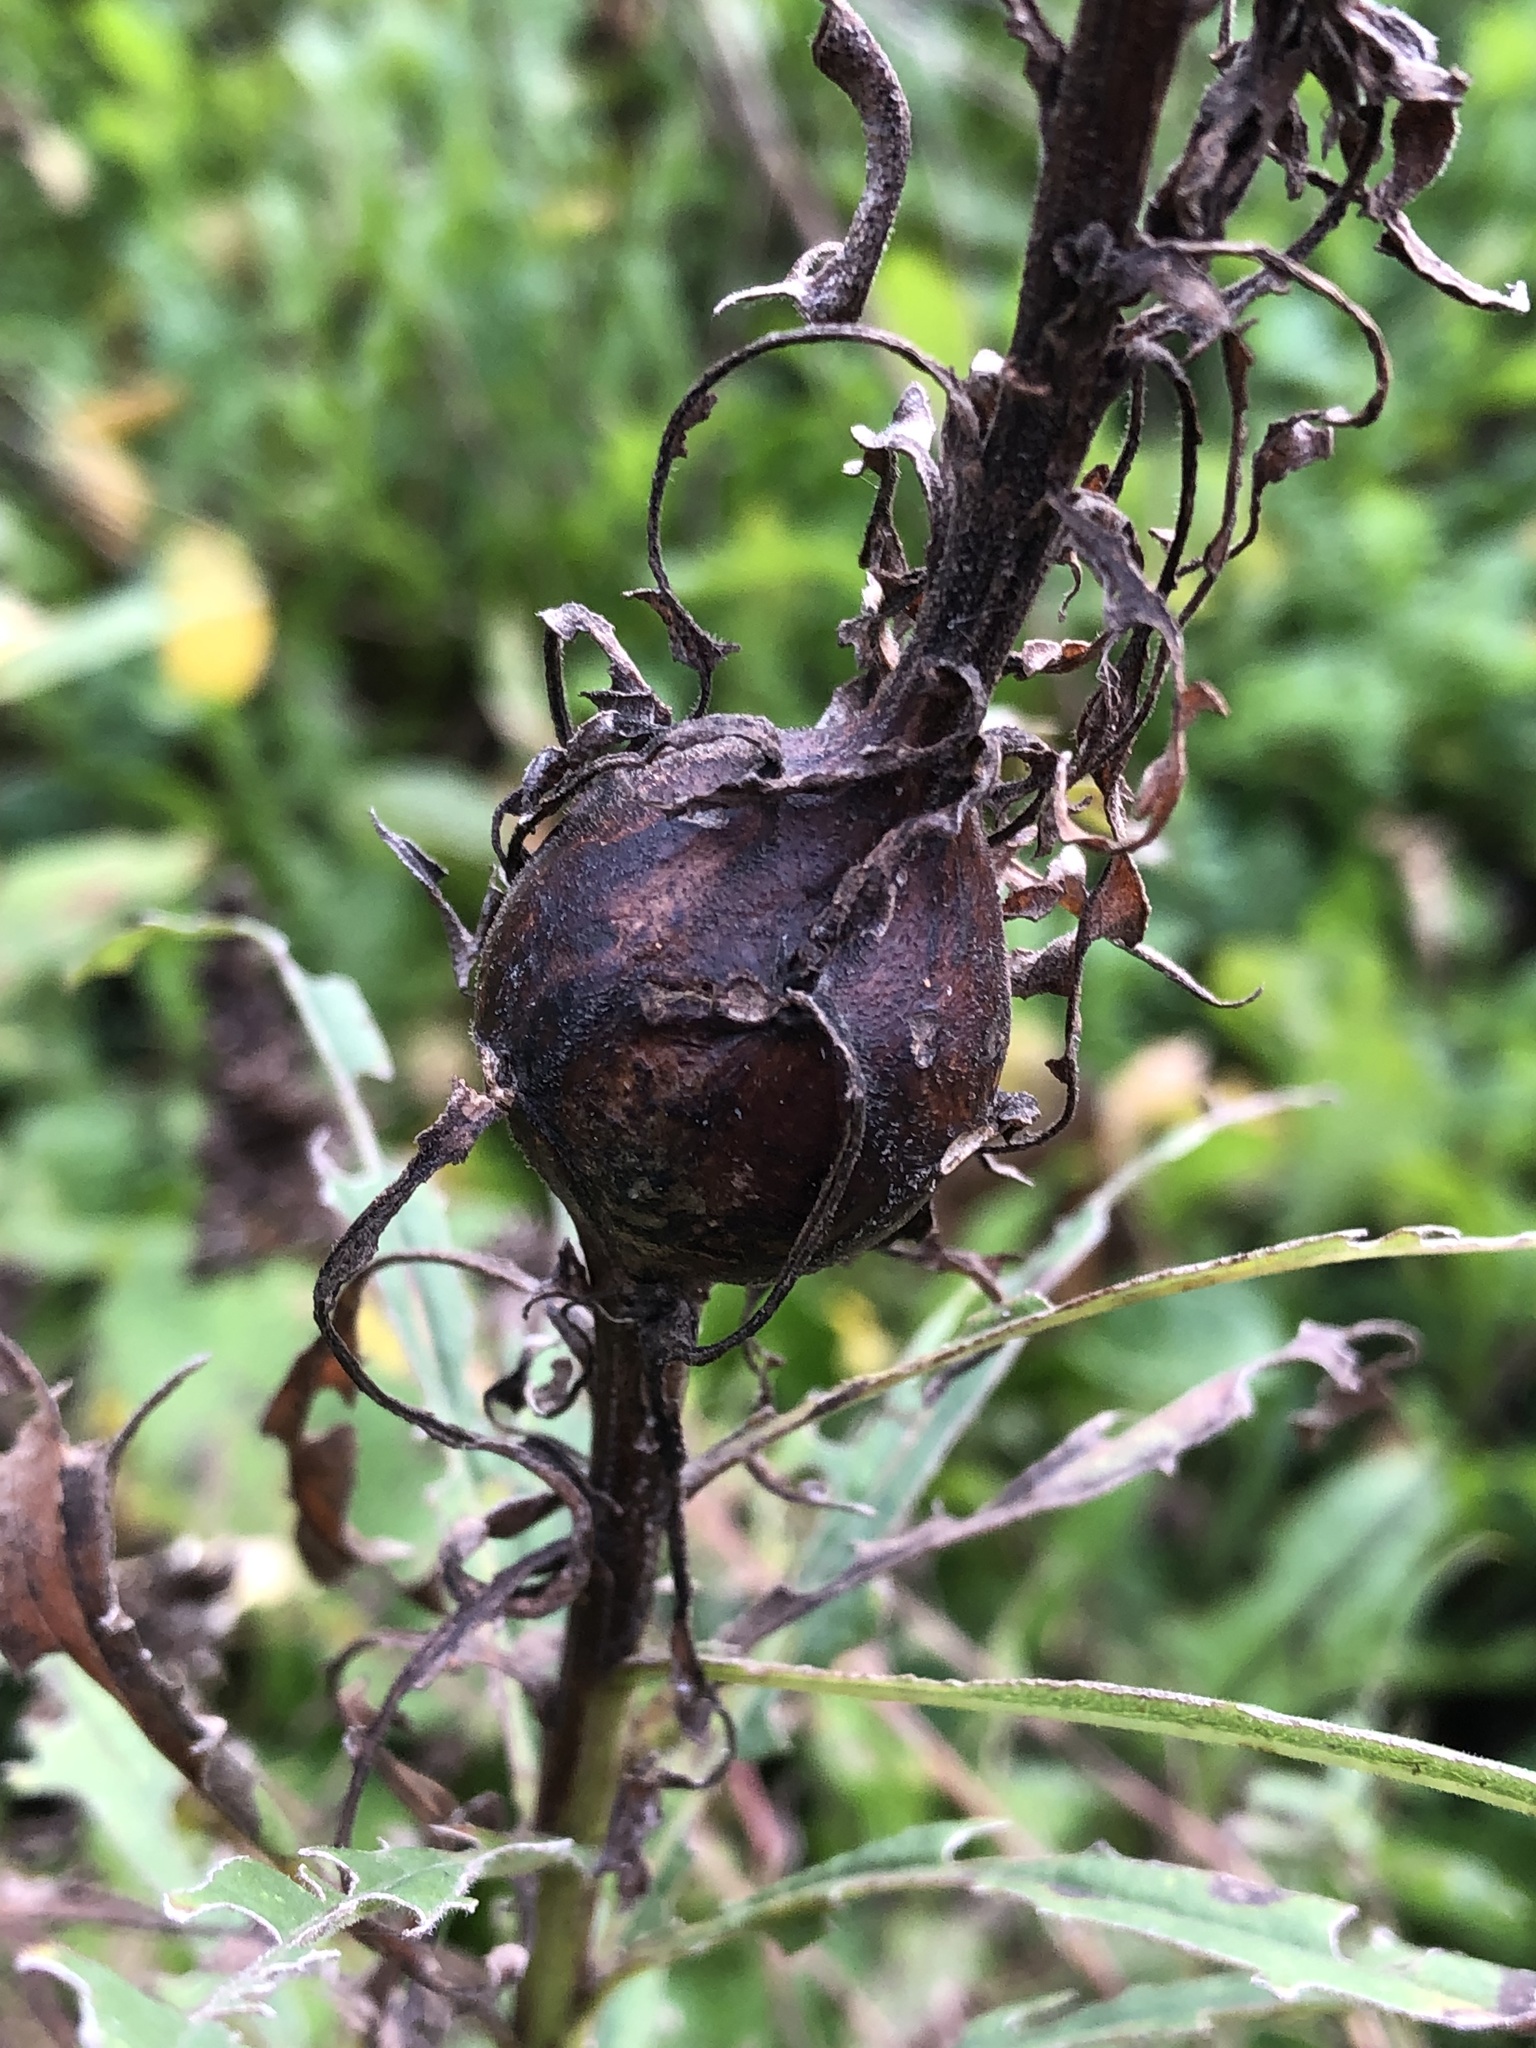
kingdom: Animalia
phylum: Arthropoda
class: Insecta
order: Diptera
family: Tephritidae
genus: Eurosta
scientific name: Eurosta solidaginis
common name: Goldenrod gall fly
